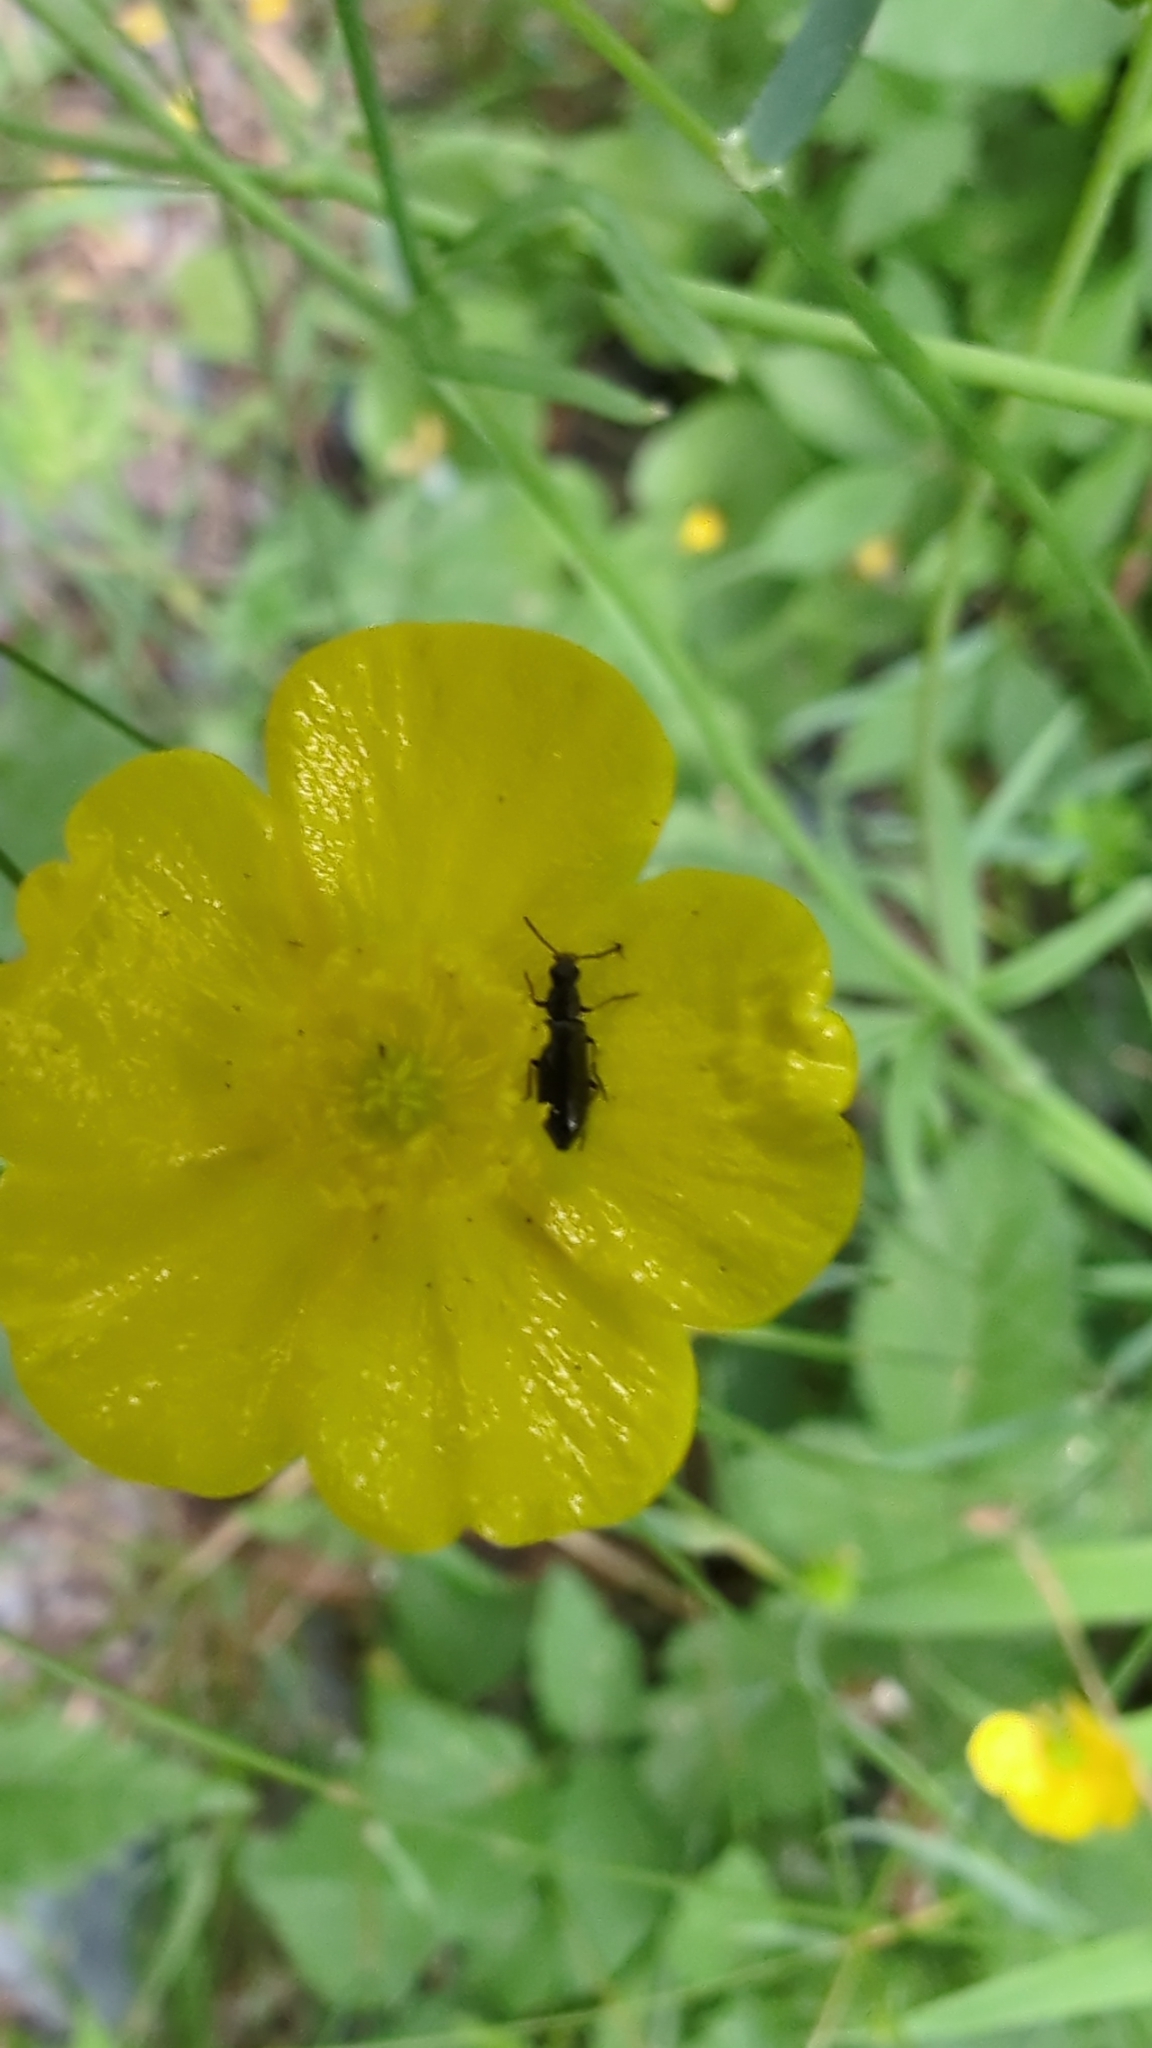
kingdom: Animalia
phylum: Arthropoda
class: Insecta
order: Coleoptera
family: Melyridae
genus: Dasytes
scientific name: Dasytes plumbeus
